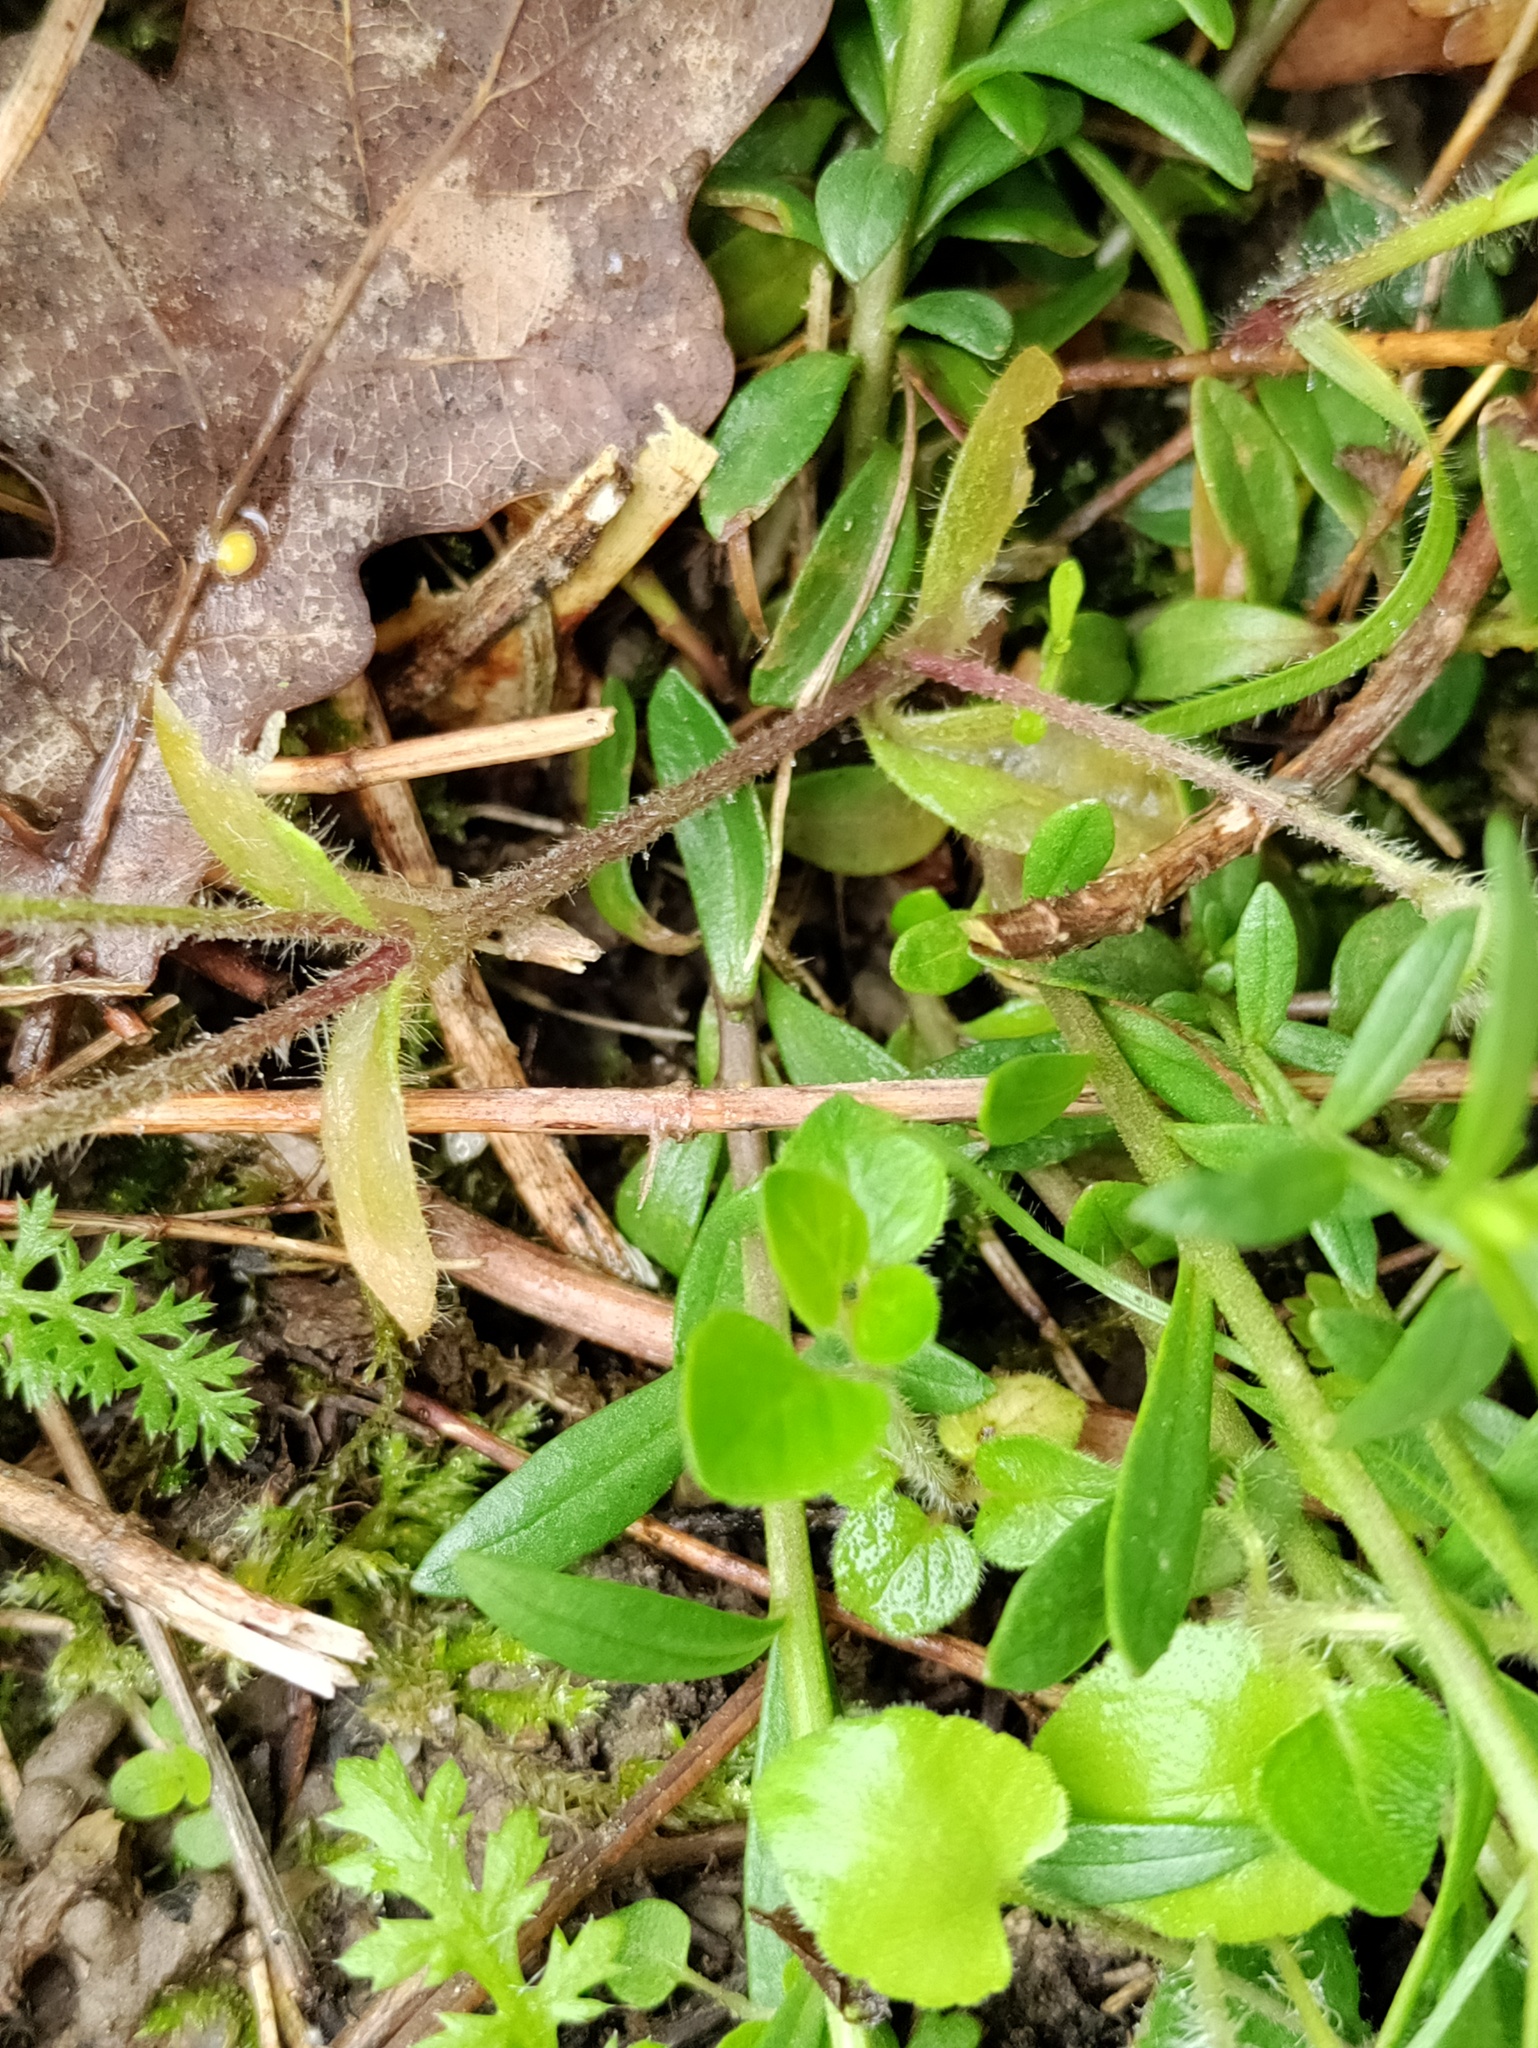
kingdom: Plantae
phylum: Tracheophyta
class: Magnoliopsida
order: Fabales
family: Polygalaceae
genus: Polygala
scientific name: Polygala comosa
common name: Tufted milkwort
